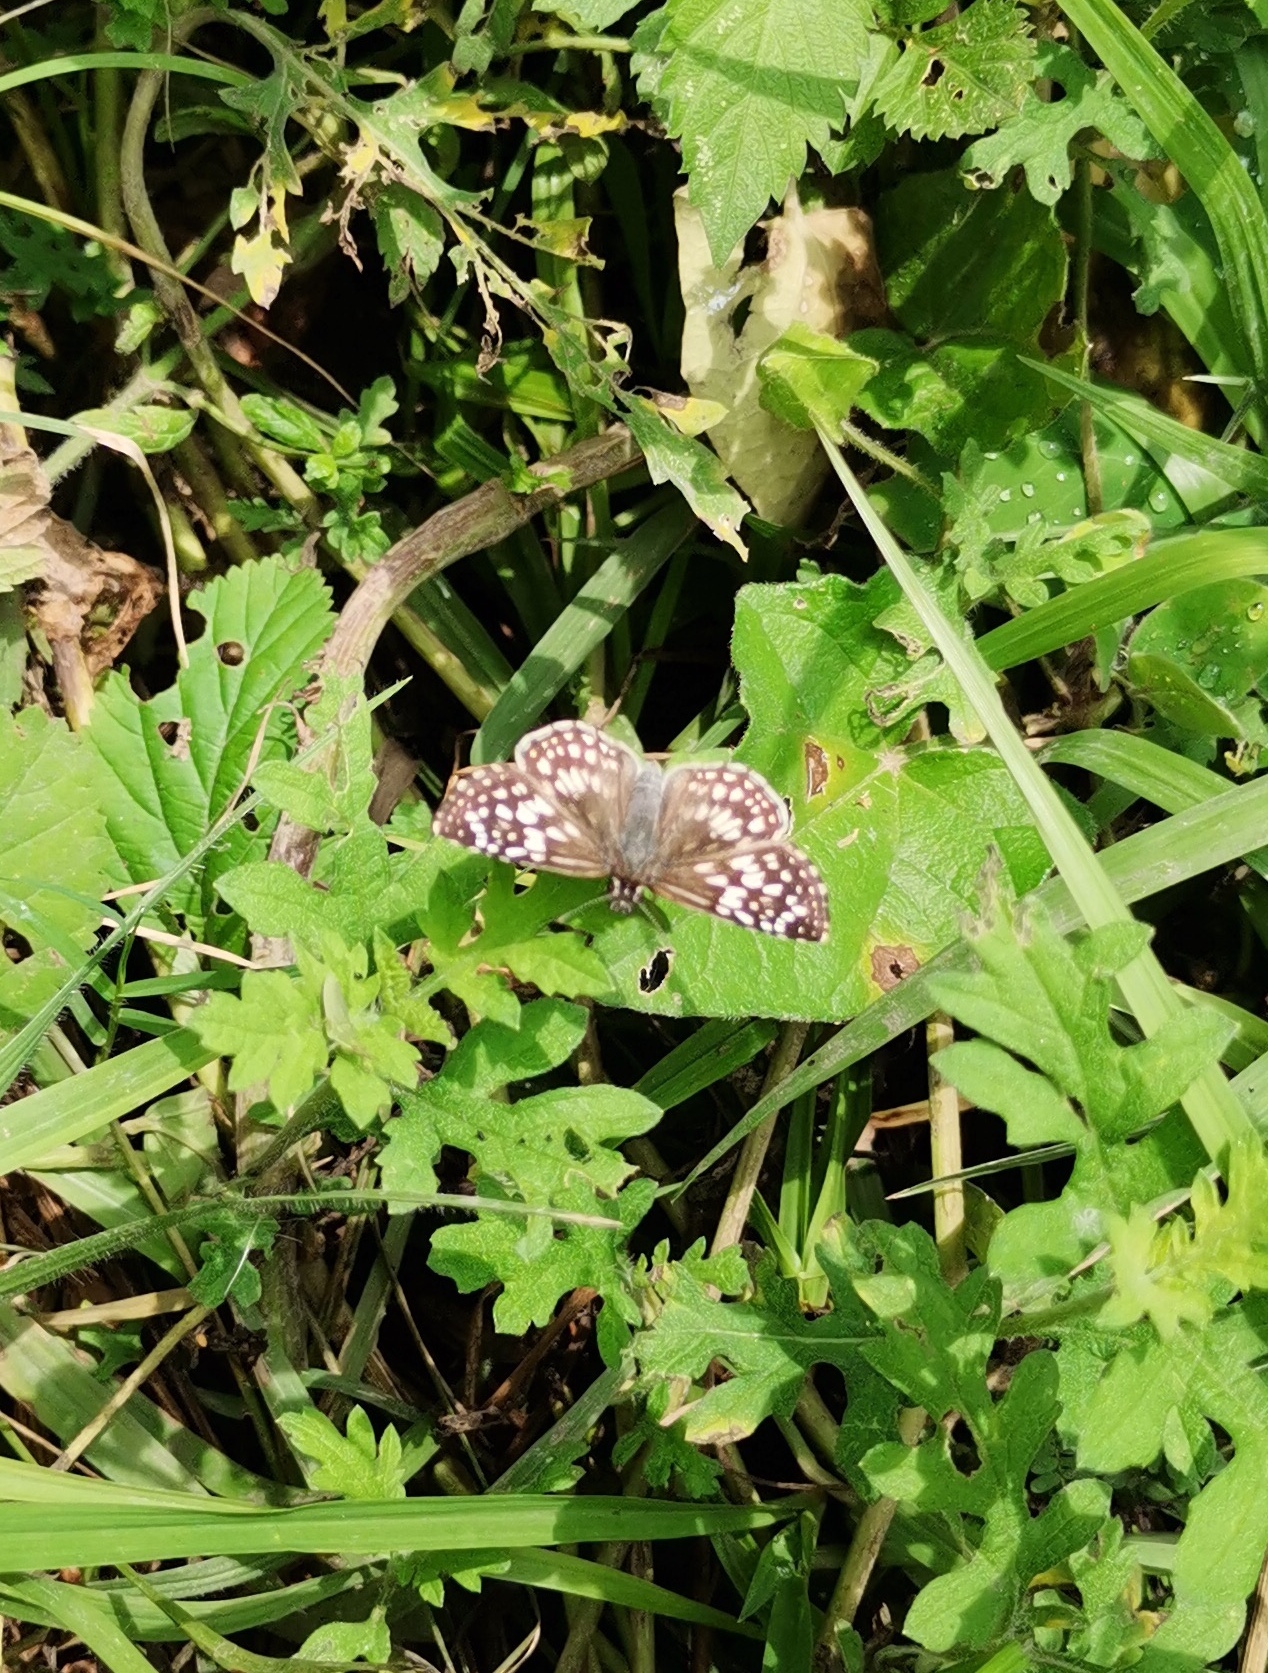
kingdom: Animalia
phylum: Arthropoda
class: Insecta
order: Lepidoptera
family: Hesperiidae
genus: Pyrgus
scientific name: Pyrgus oileus
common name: Tropical checkered-skipper
